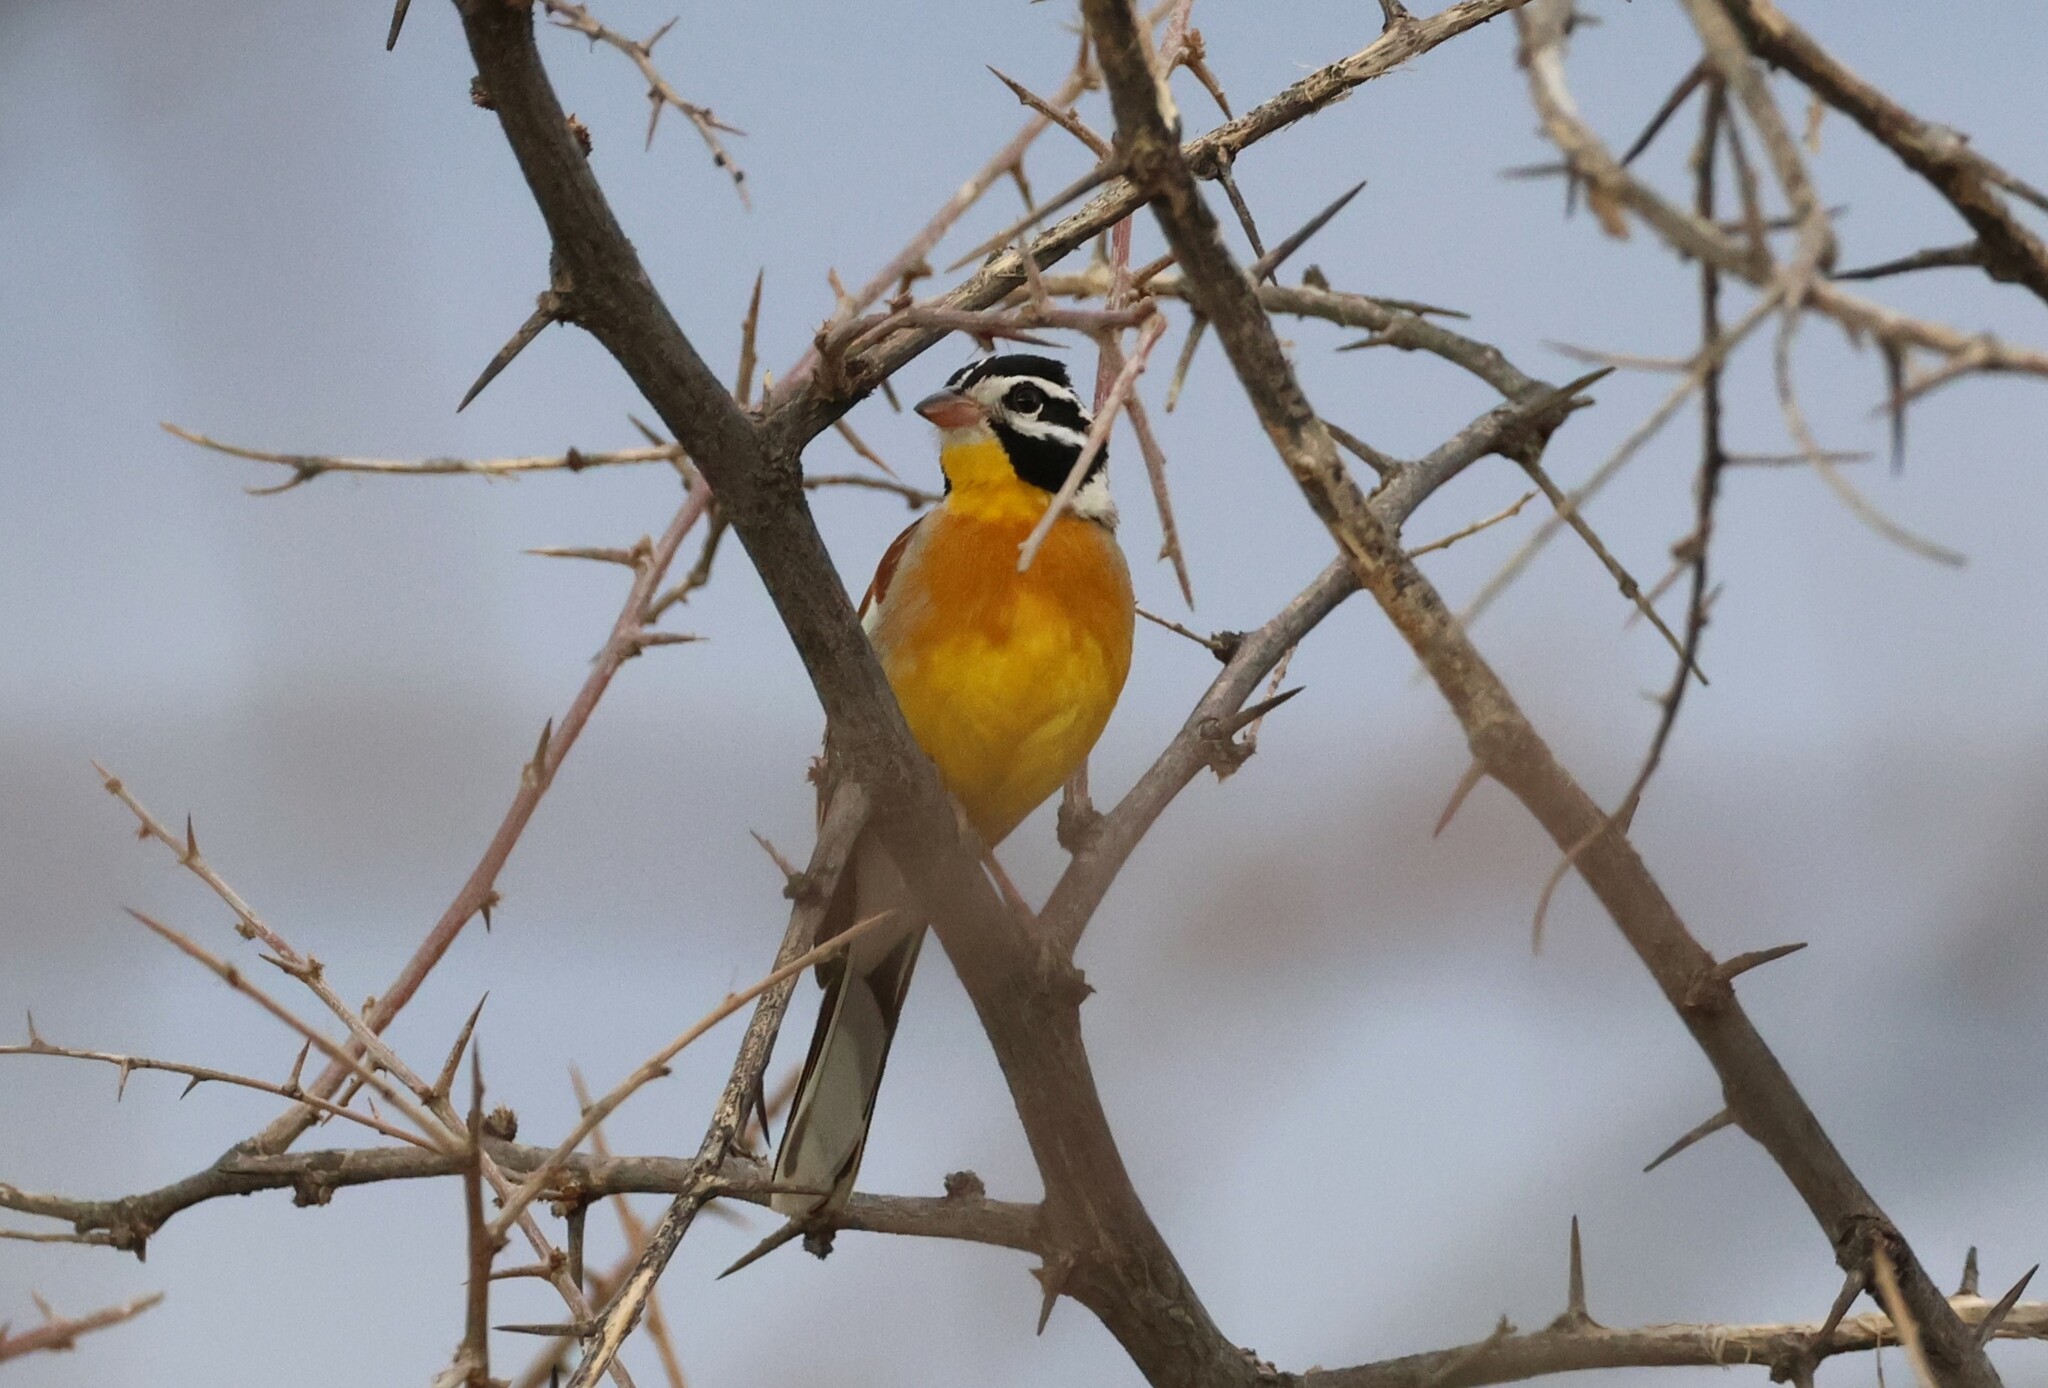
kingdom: Animalia
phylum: Chordata
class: Aves
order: Passeriformes
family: Emberizidae
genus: Emberiza
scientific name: Emberiza flaviventris
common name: Golden-breasted bunting
